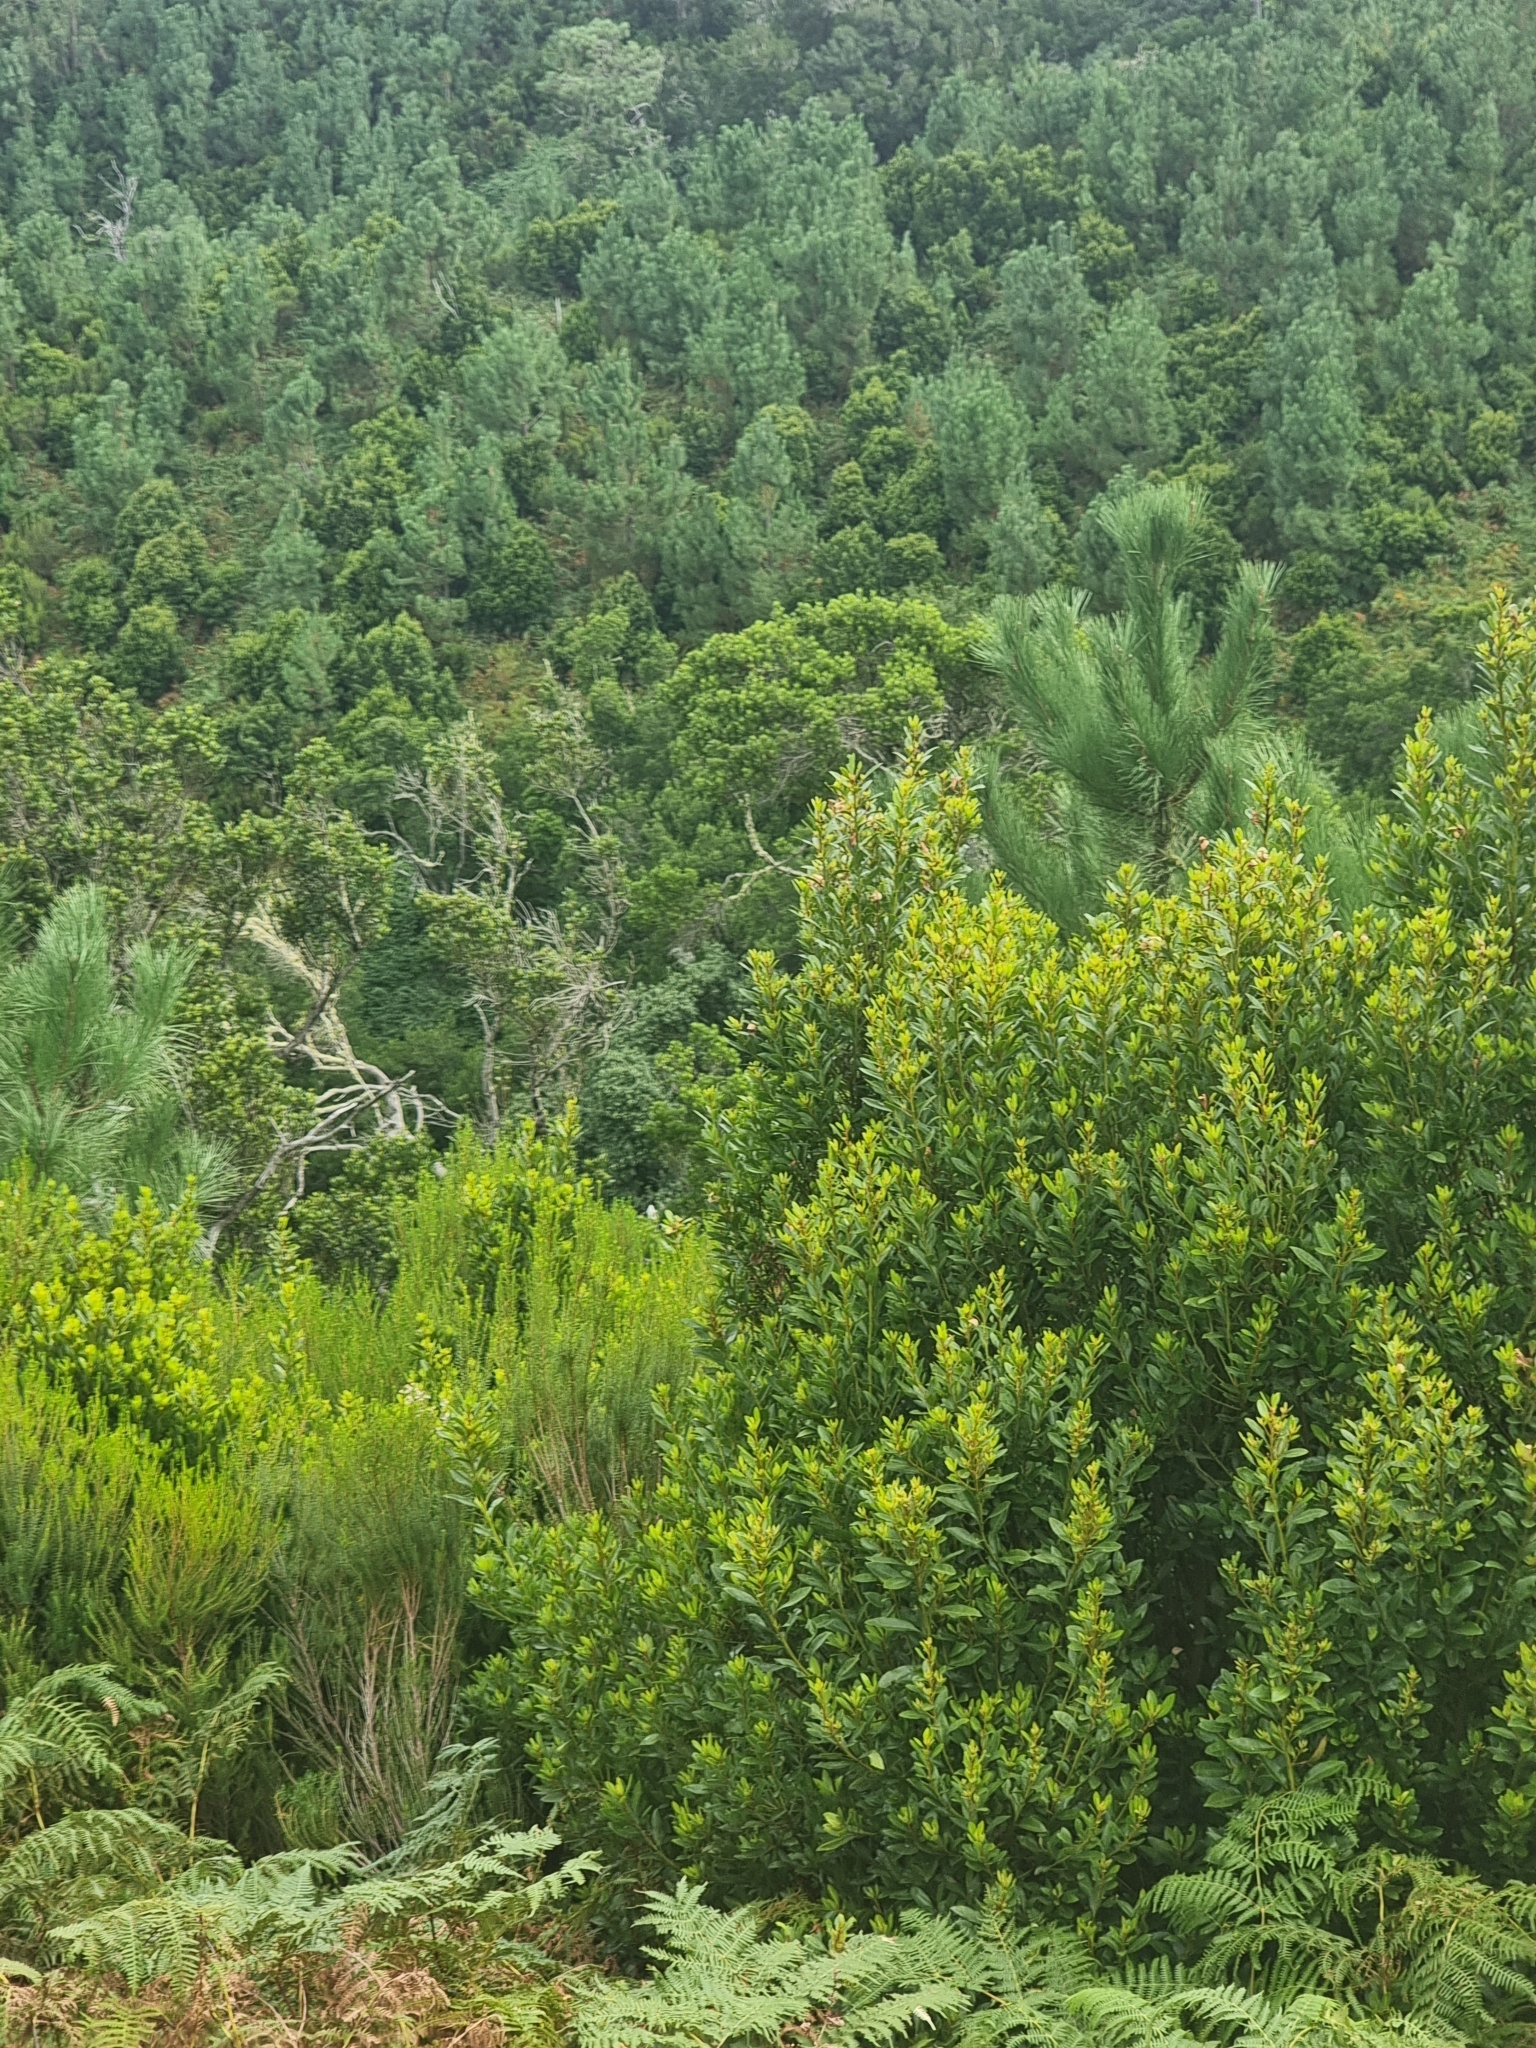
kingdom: Plantae
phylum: Tracheophyta
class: Magnoliopsida
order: Fagales
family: Myricaceae
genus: Morella
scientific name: Morella faya
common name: Firetree
